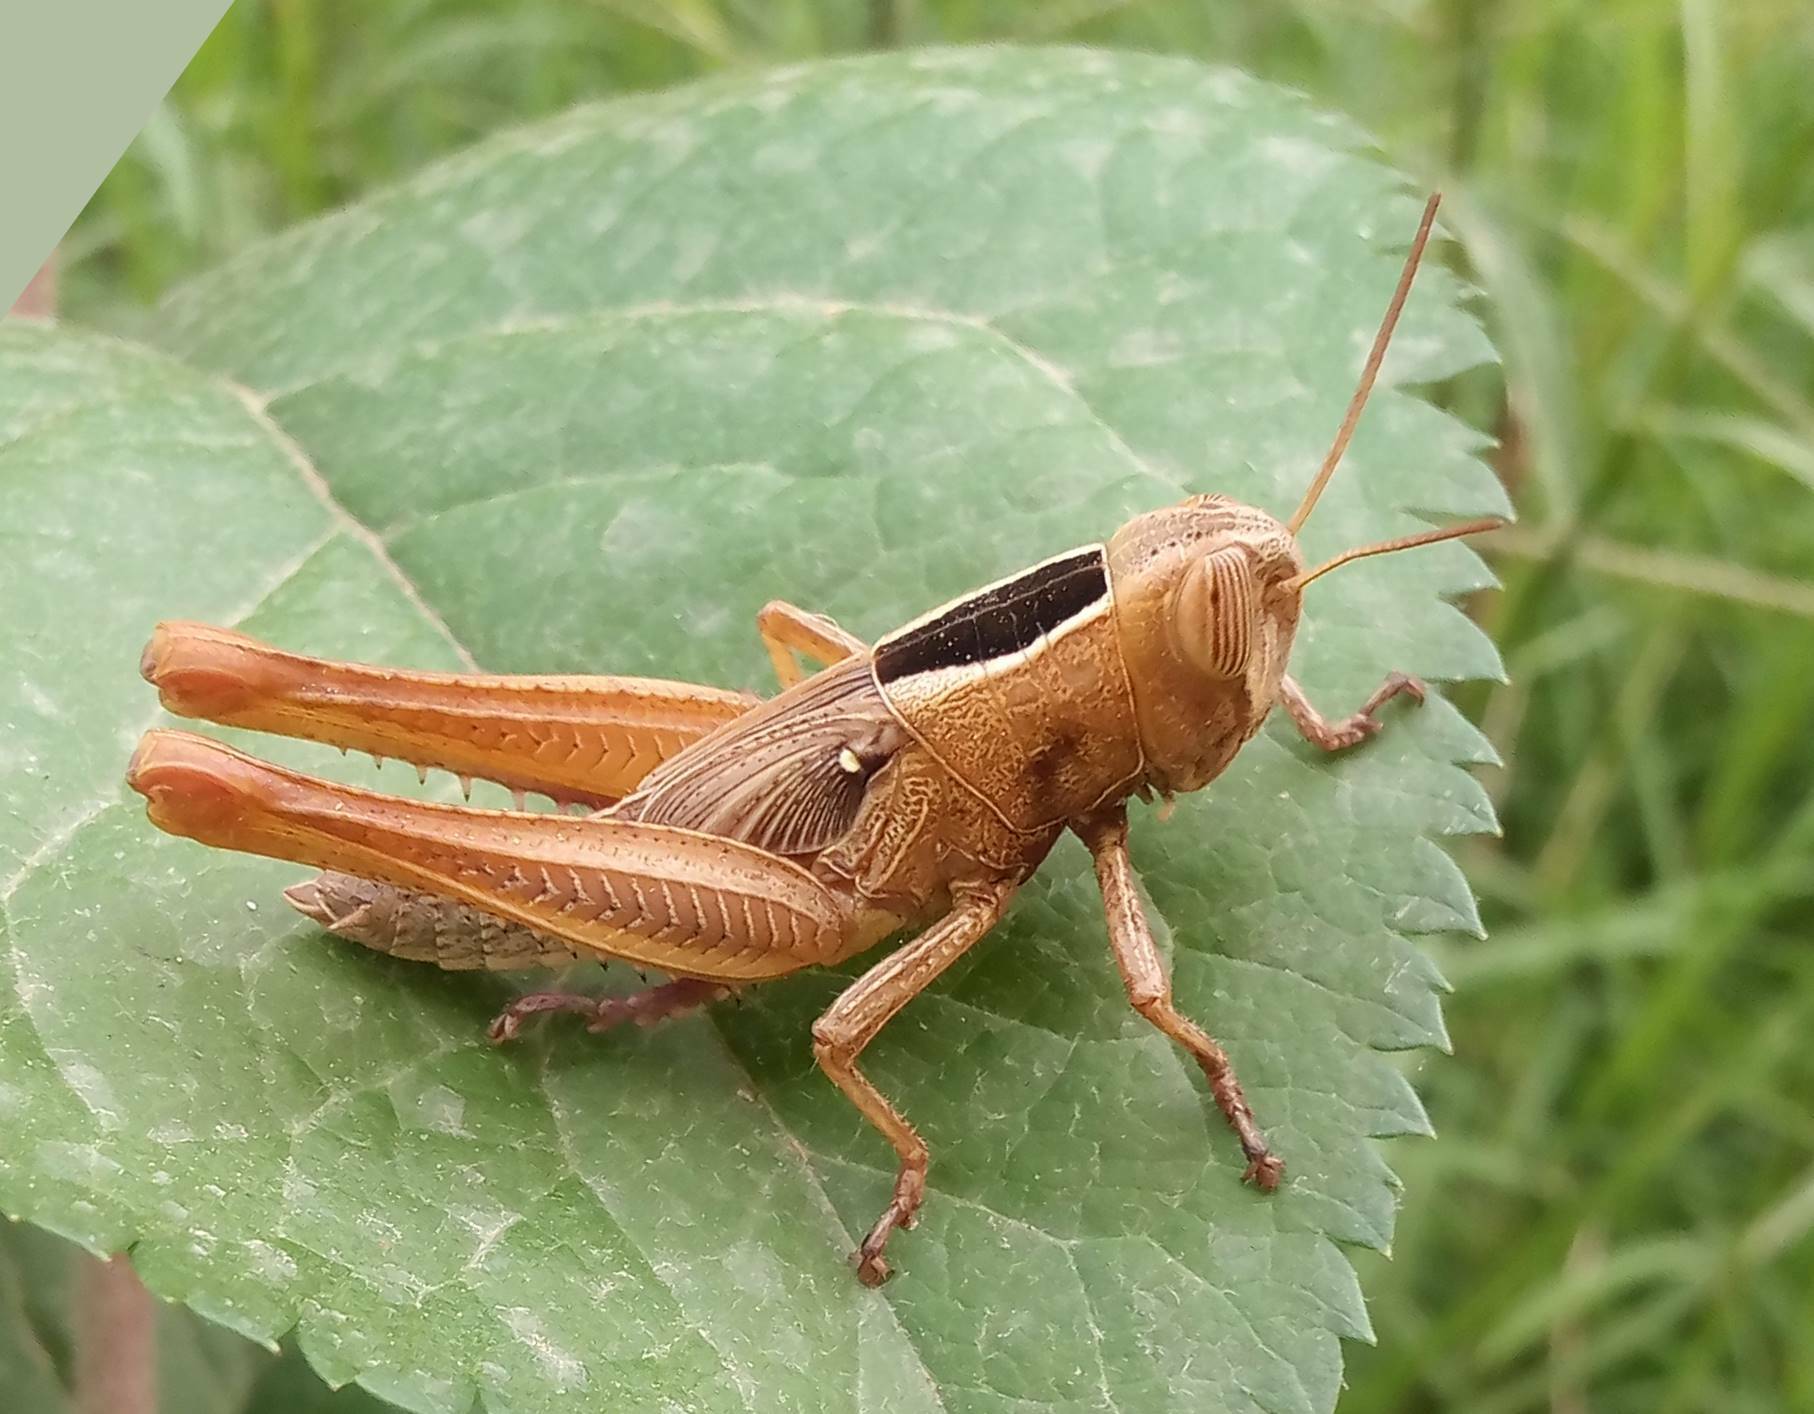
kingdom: Animalia
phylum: Arthropoda
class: Insecta
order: Orthoptera
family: Acrididae
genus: Eyprepocnemis
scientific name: Eyprepocnemis plorans
